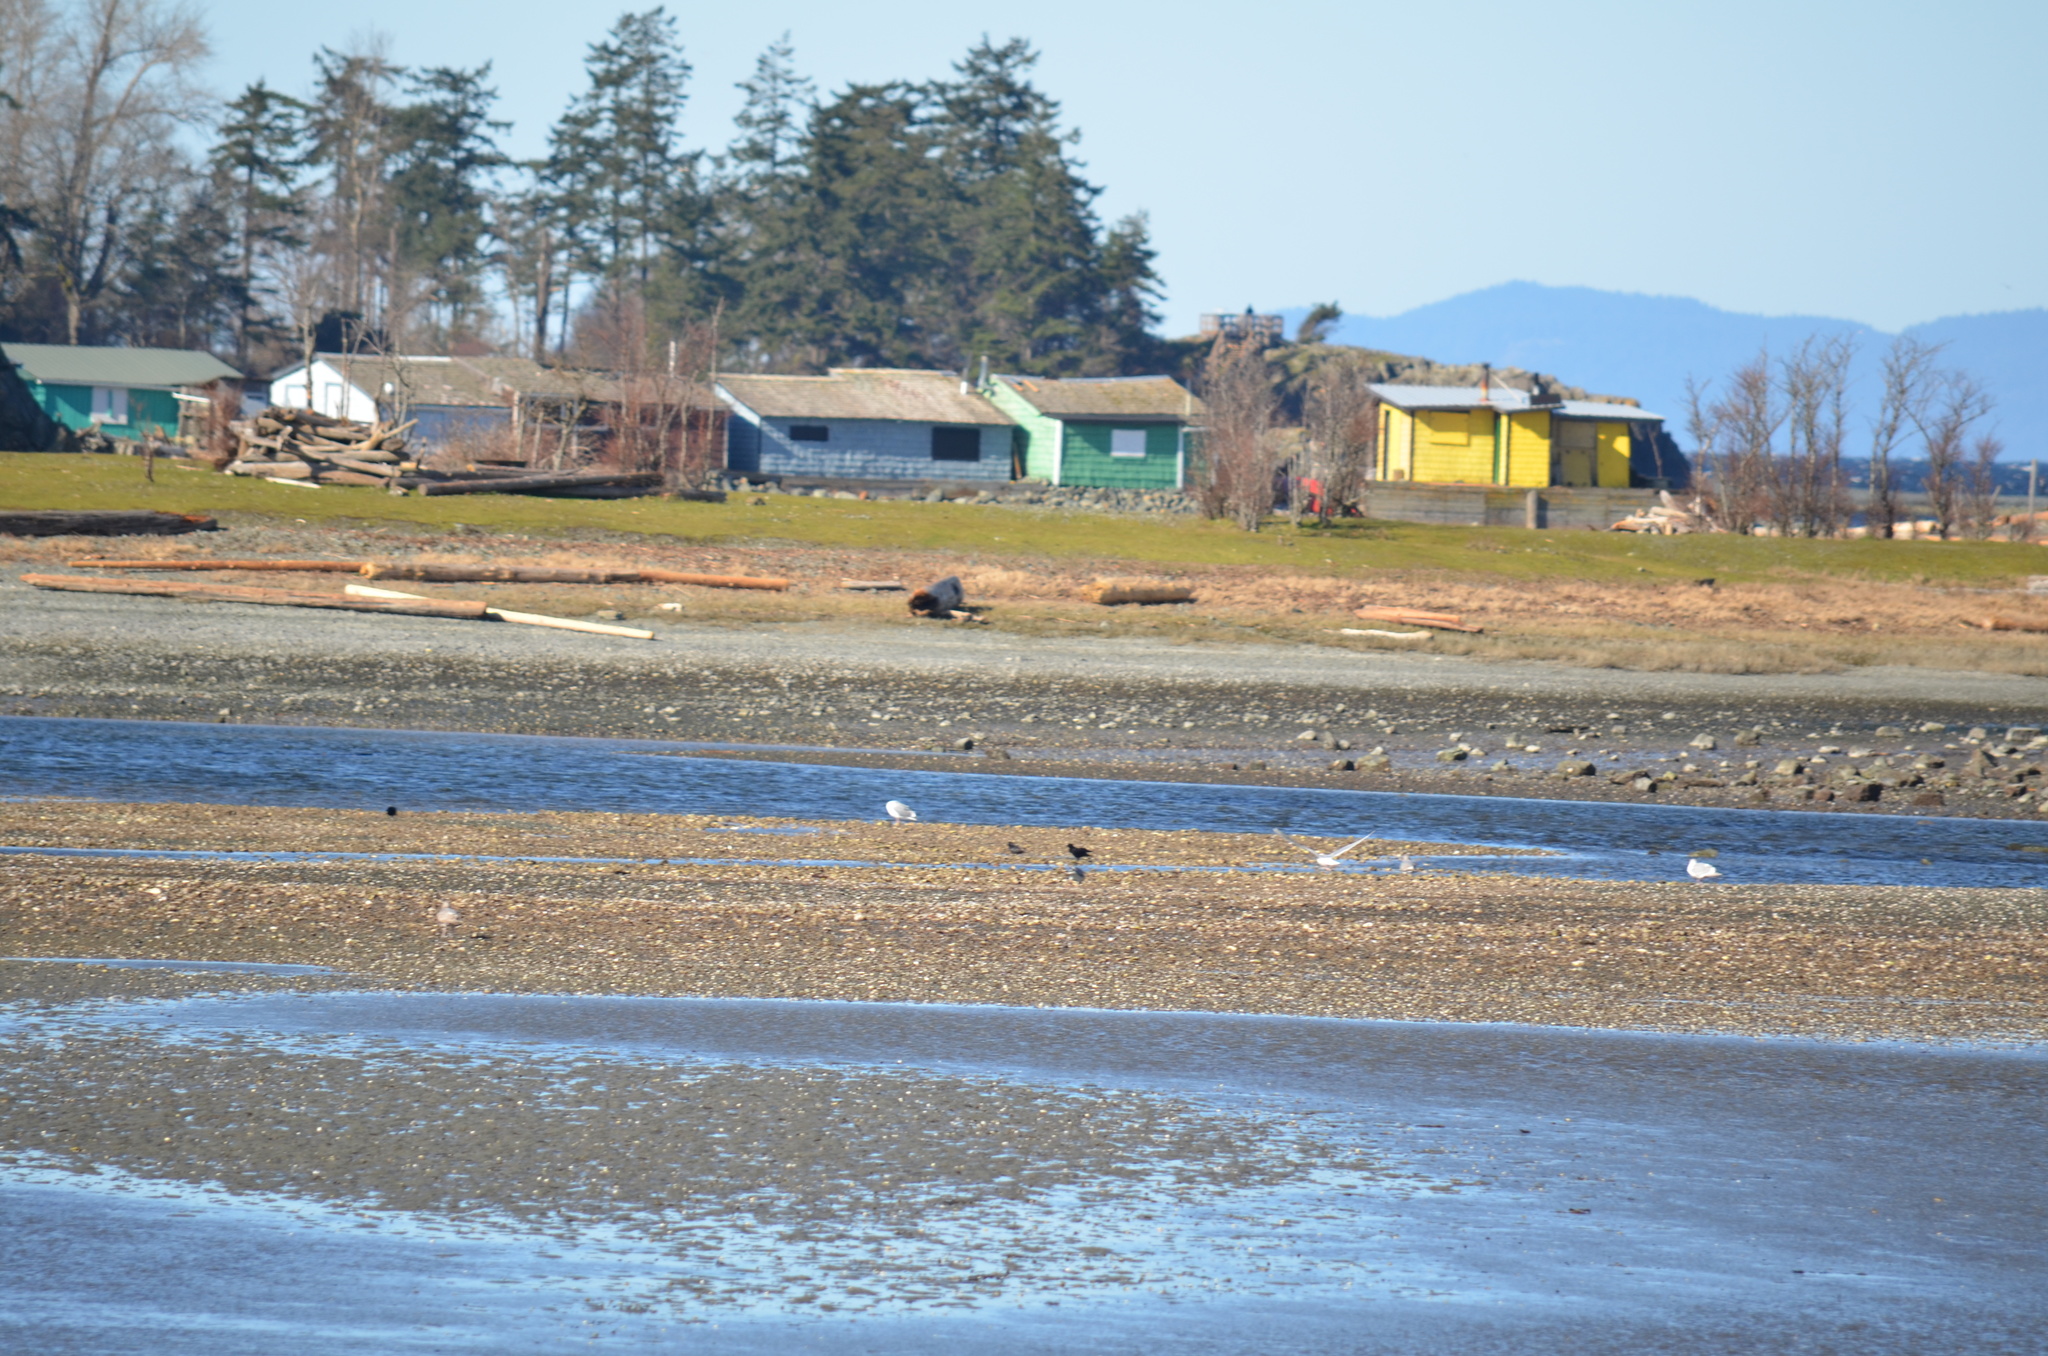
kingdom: Animalia
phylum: Chordata
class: Aves
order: Passeriformes
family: Corvidae
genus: Corvus
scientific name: Corvus brachyrhynchos
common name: American crow
